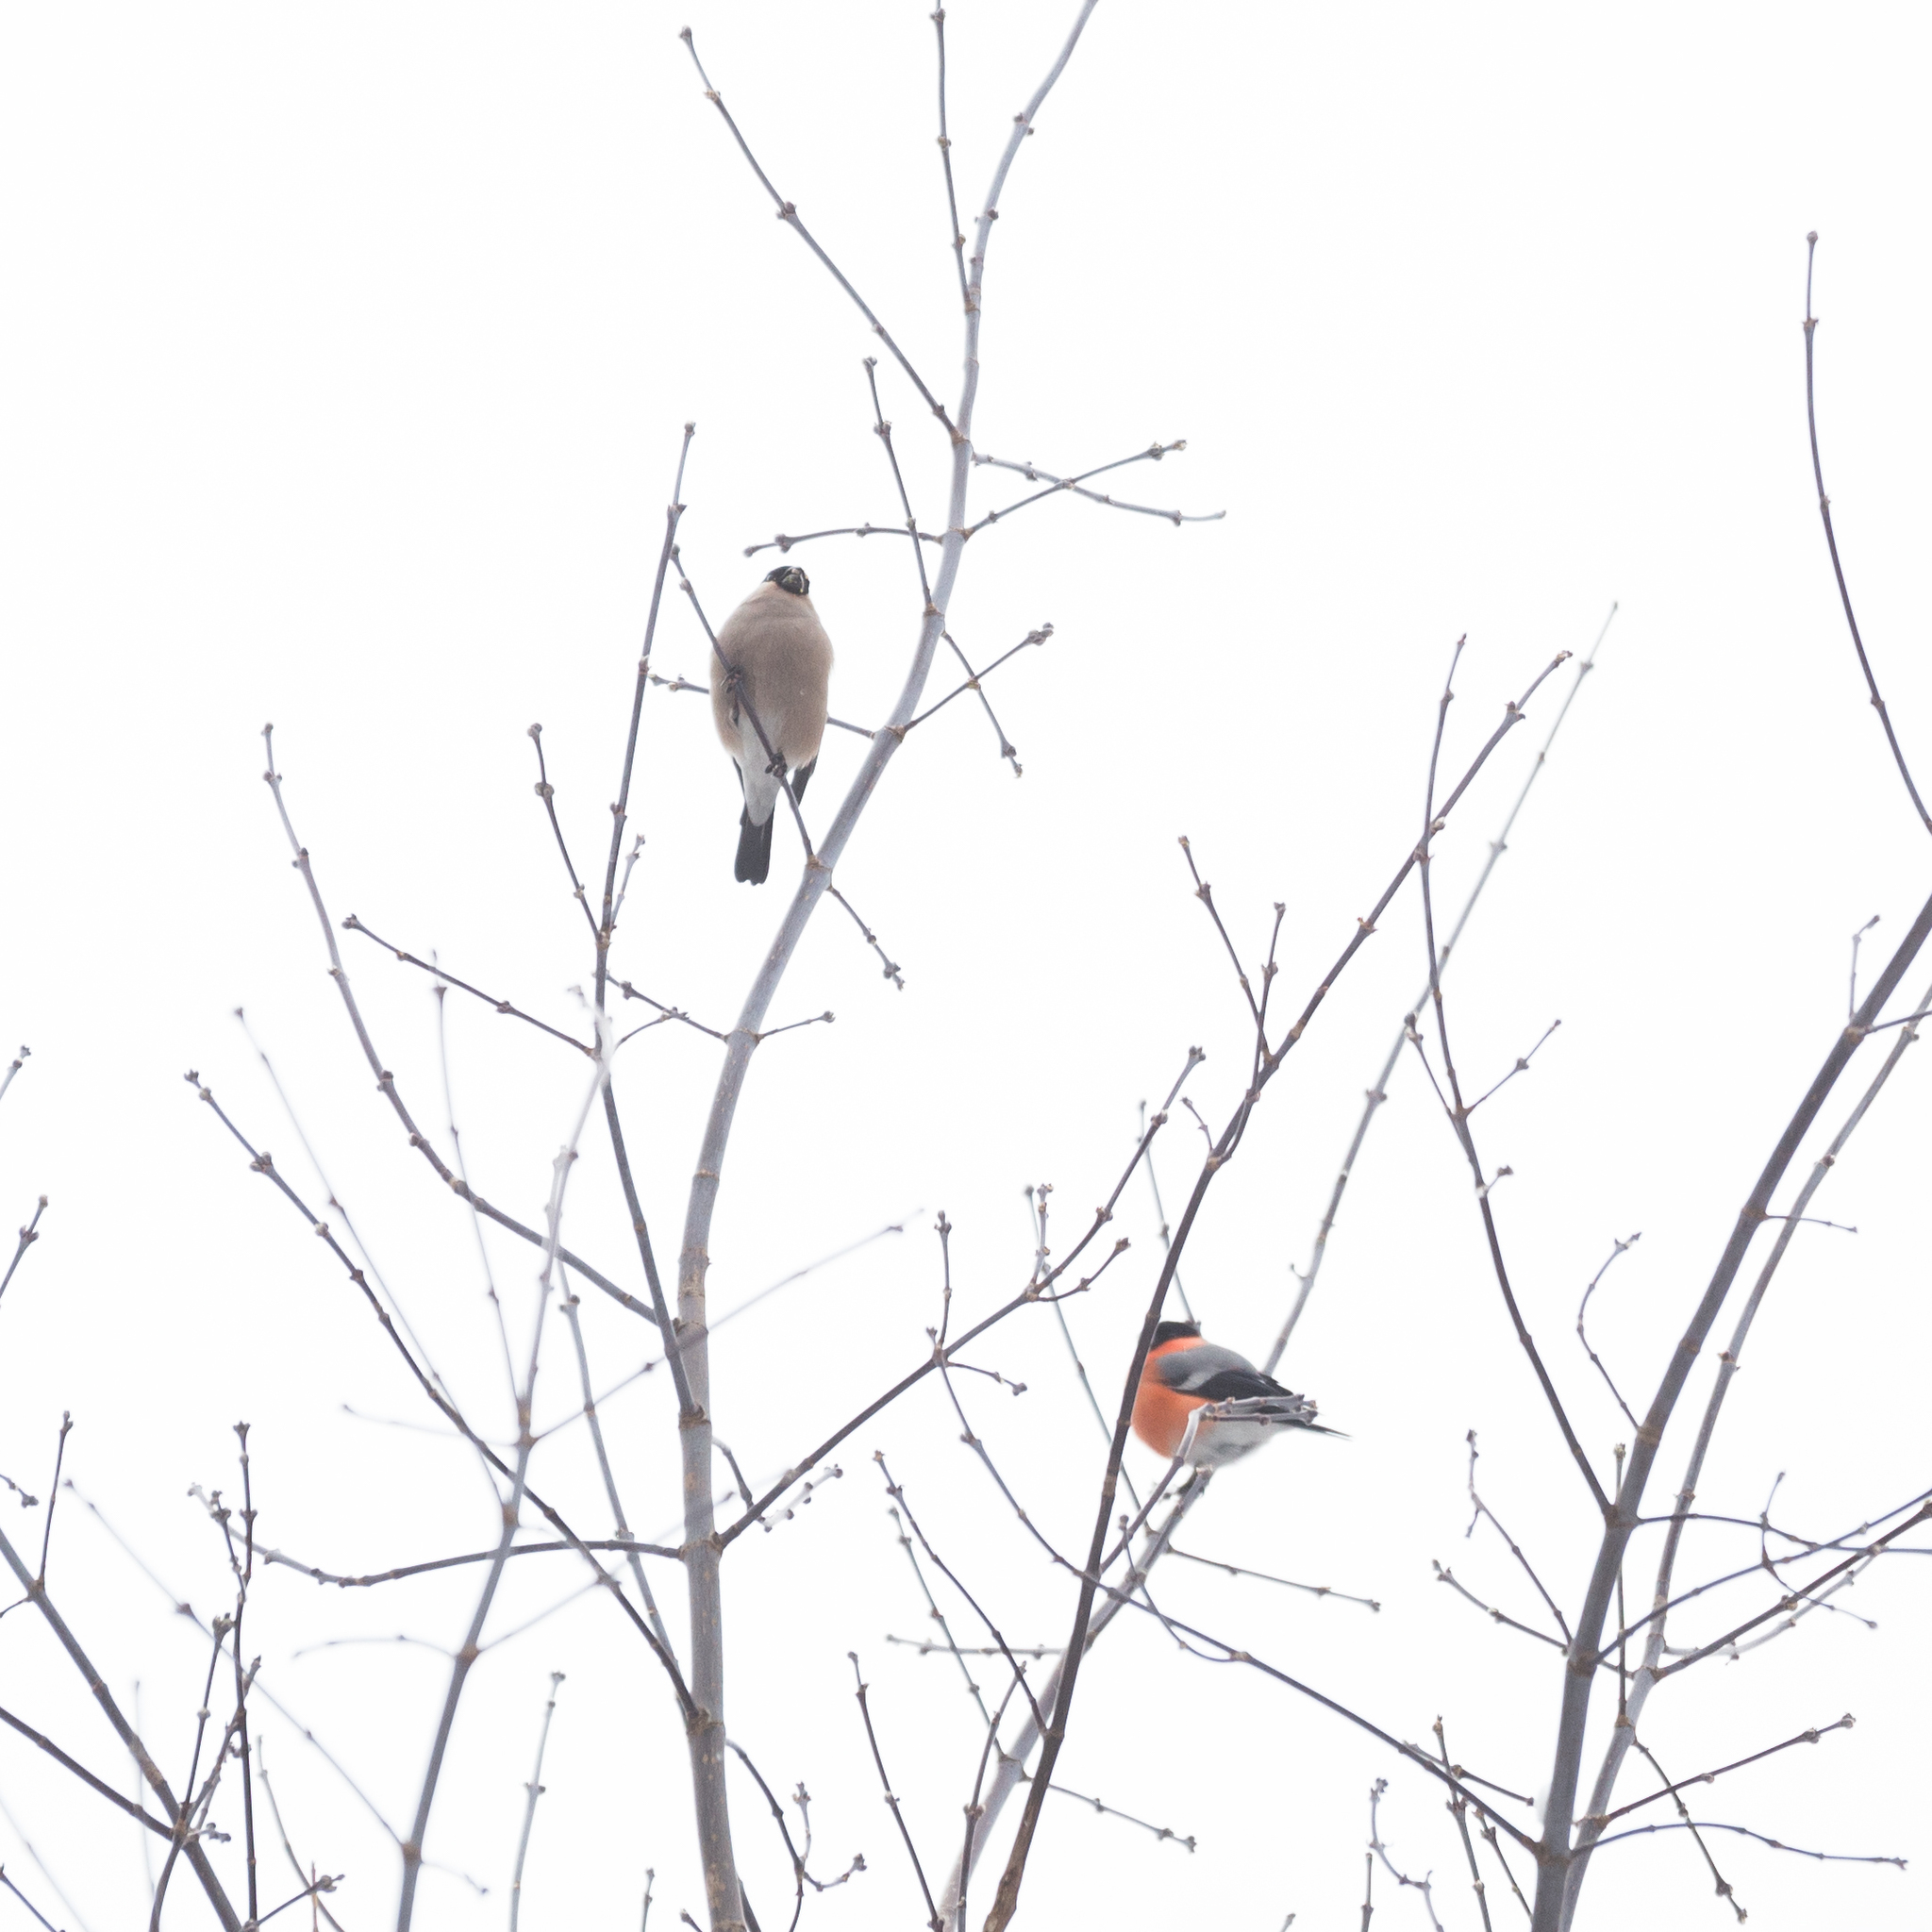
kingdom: Animalia
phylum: Chordata
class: Aves
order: Passeriformes
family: Fringillidae
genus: Pyrrhula
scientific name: Pyrrhula pyrrhula
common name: Eurasian bullfinch
